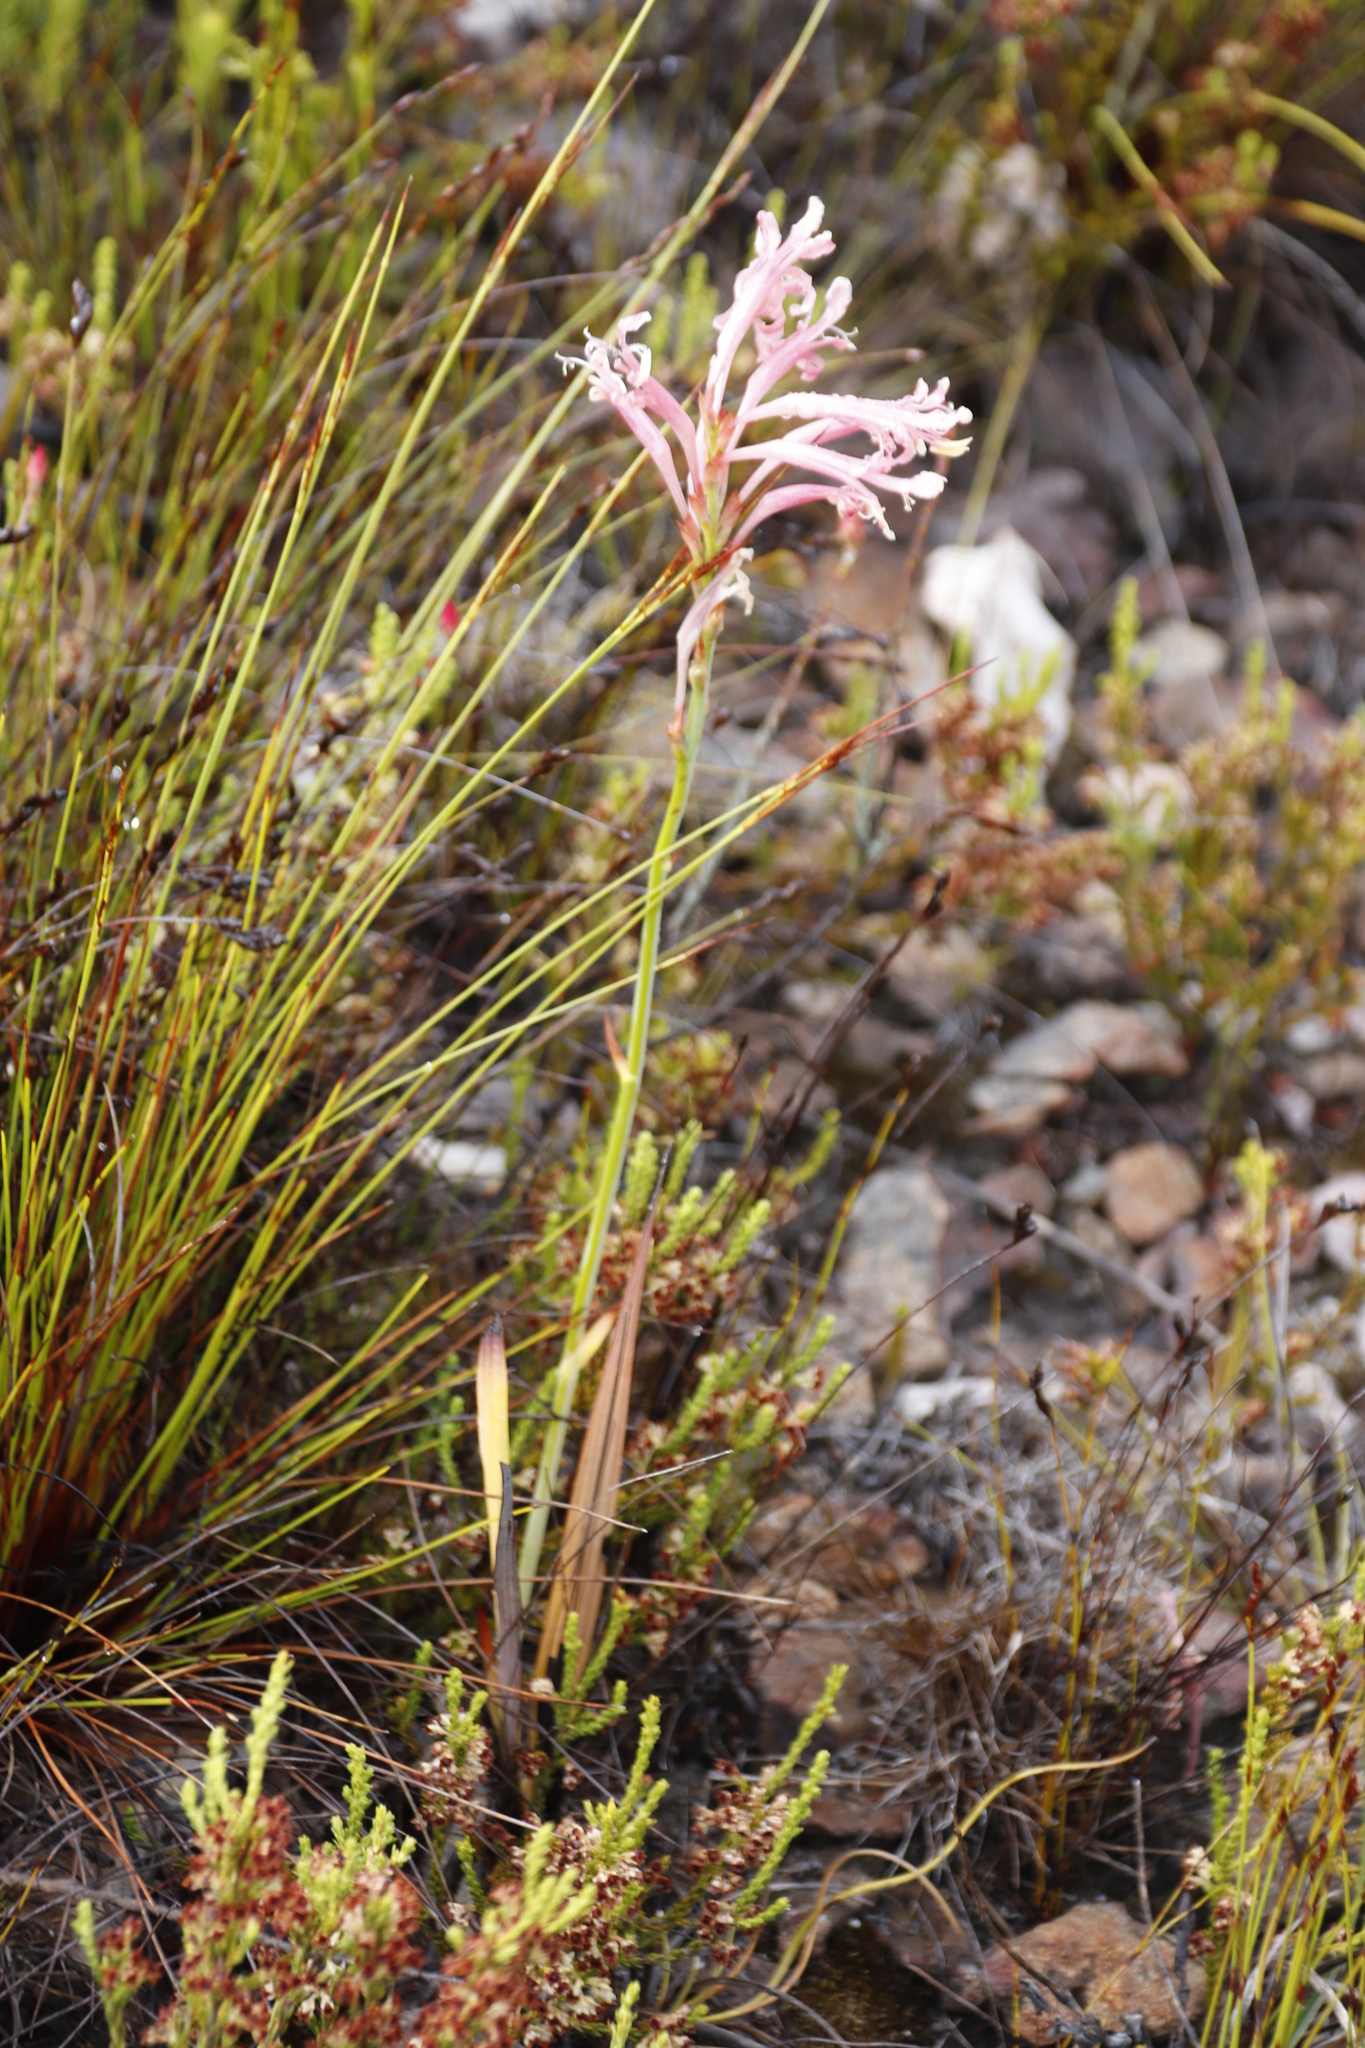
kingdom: Plantae
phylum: Tracheophyta
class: Liliopsida
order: Asparagales
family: Iridaceae
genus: Tritoniopsis
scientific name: Tritoniopsis antholyza
